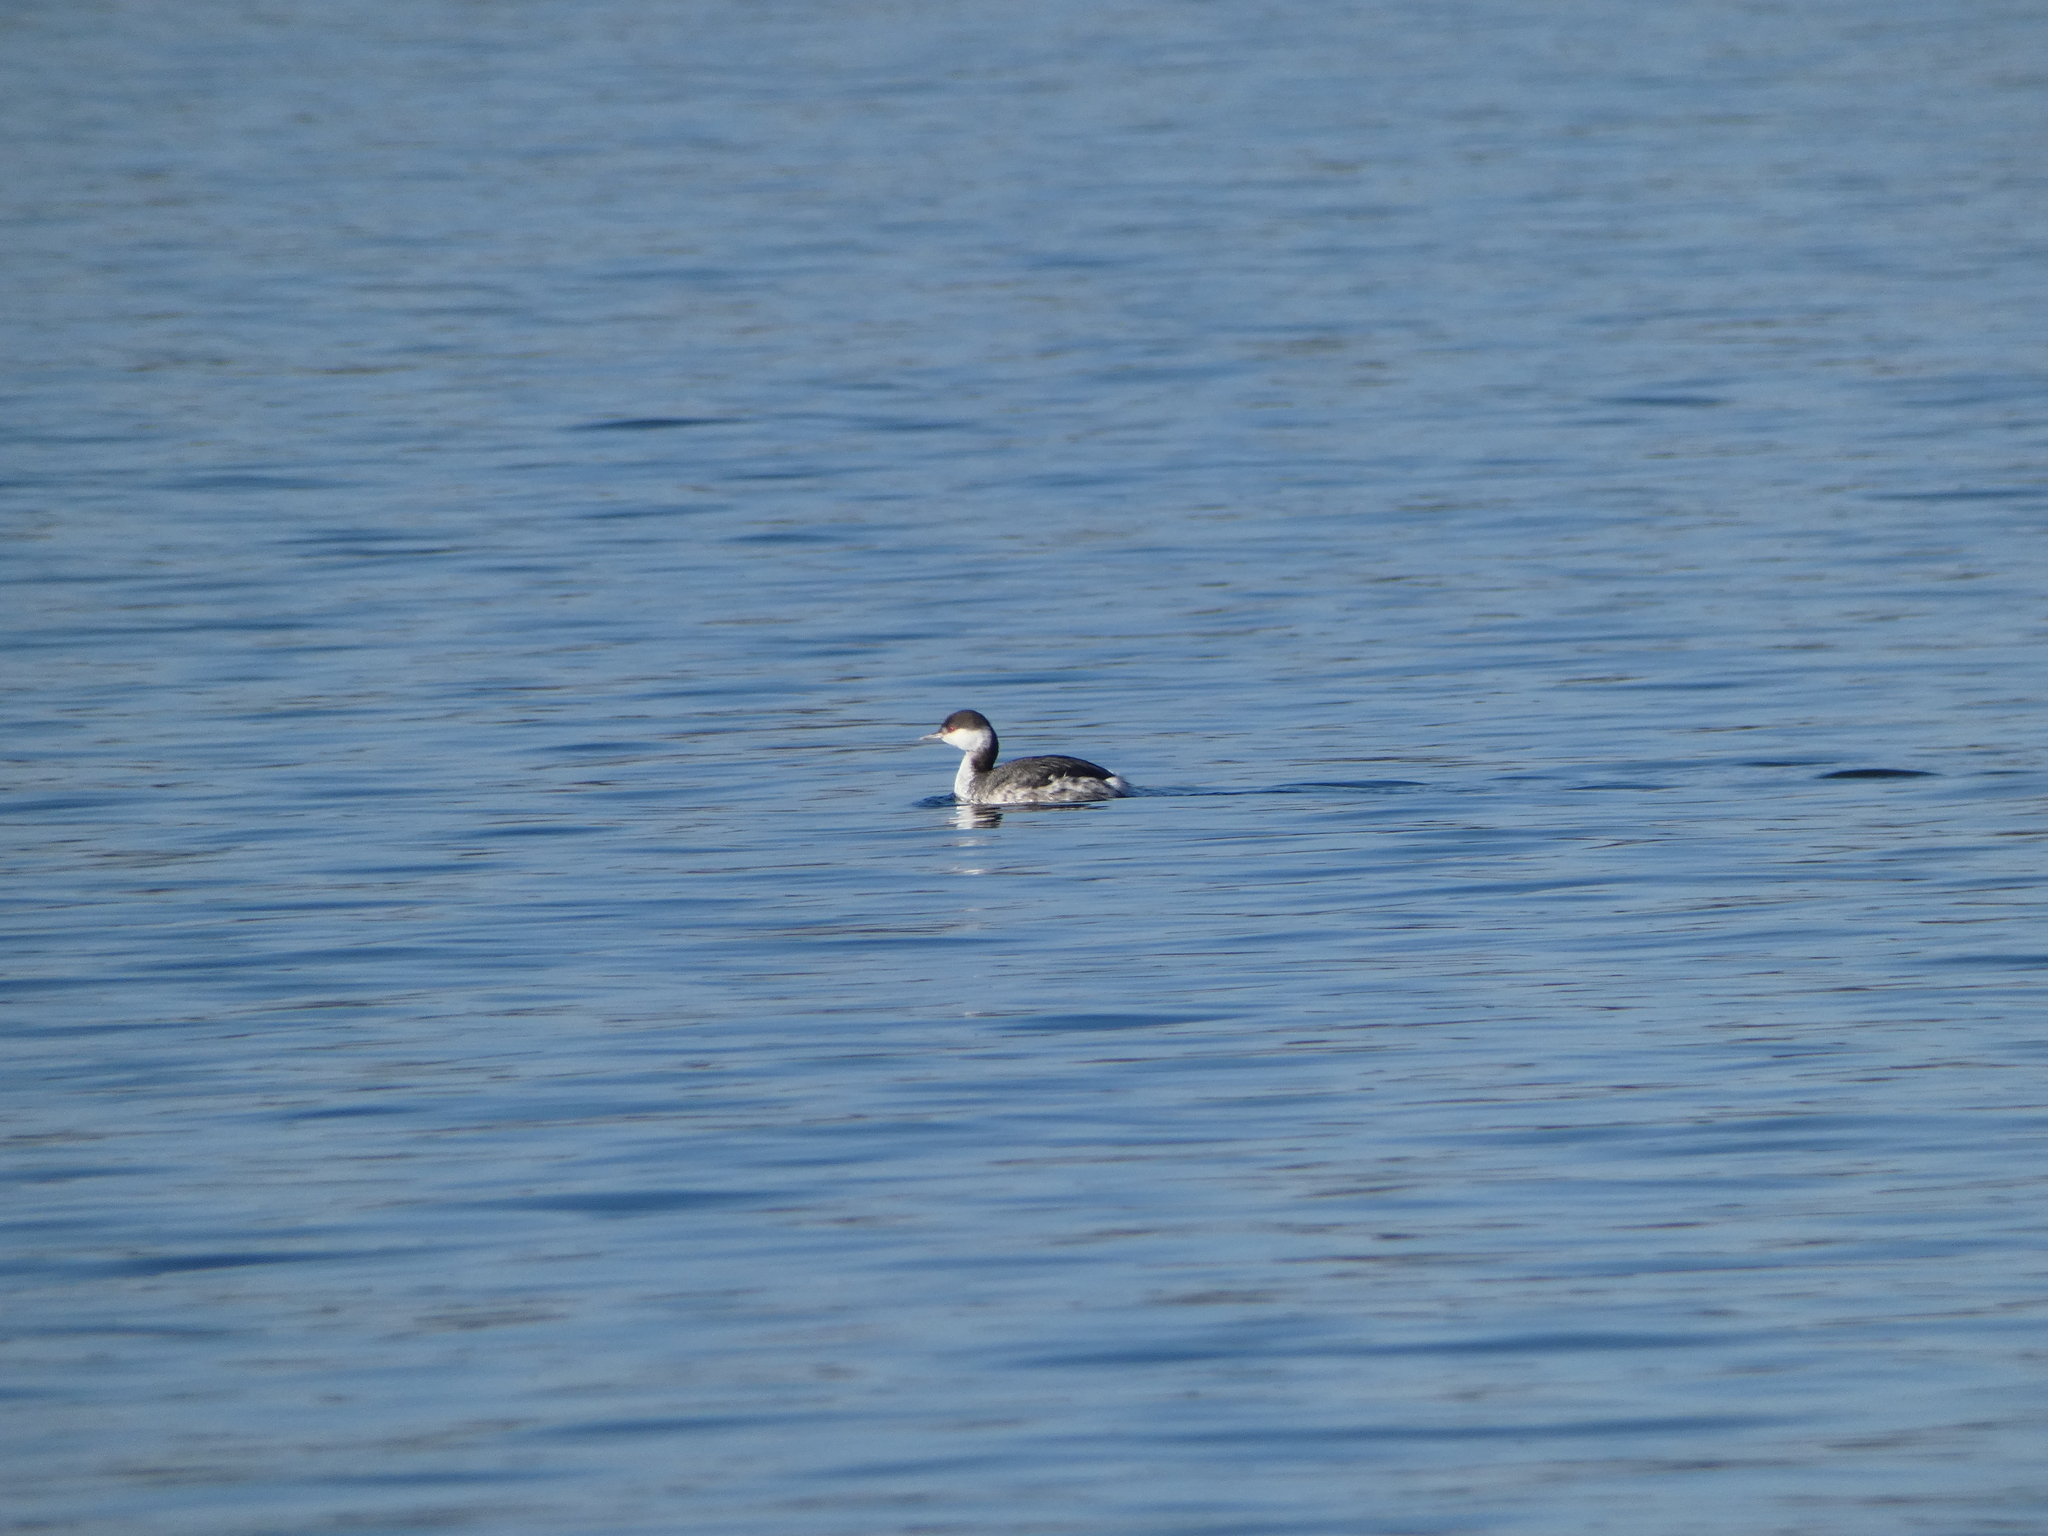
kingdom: Animalia
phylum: Chordata
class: Aves
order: Podicipediformes
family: Podicipedidae
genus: Podiceps
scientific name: Podiceps auritus
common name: Horned grebe
